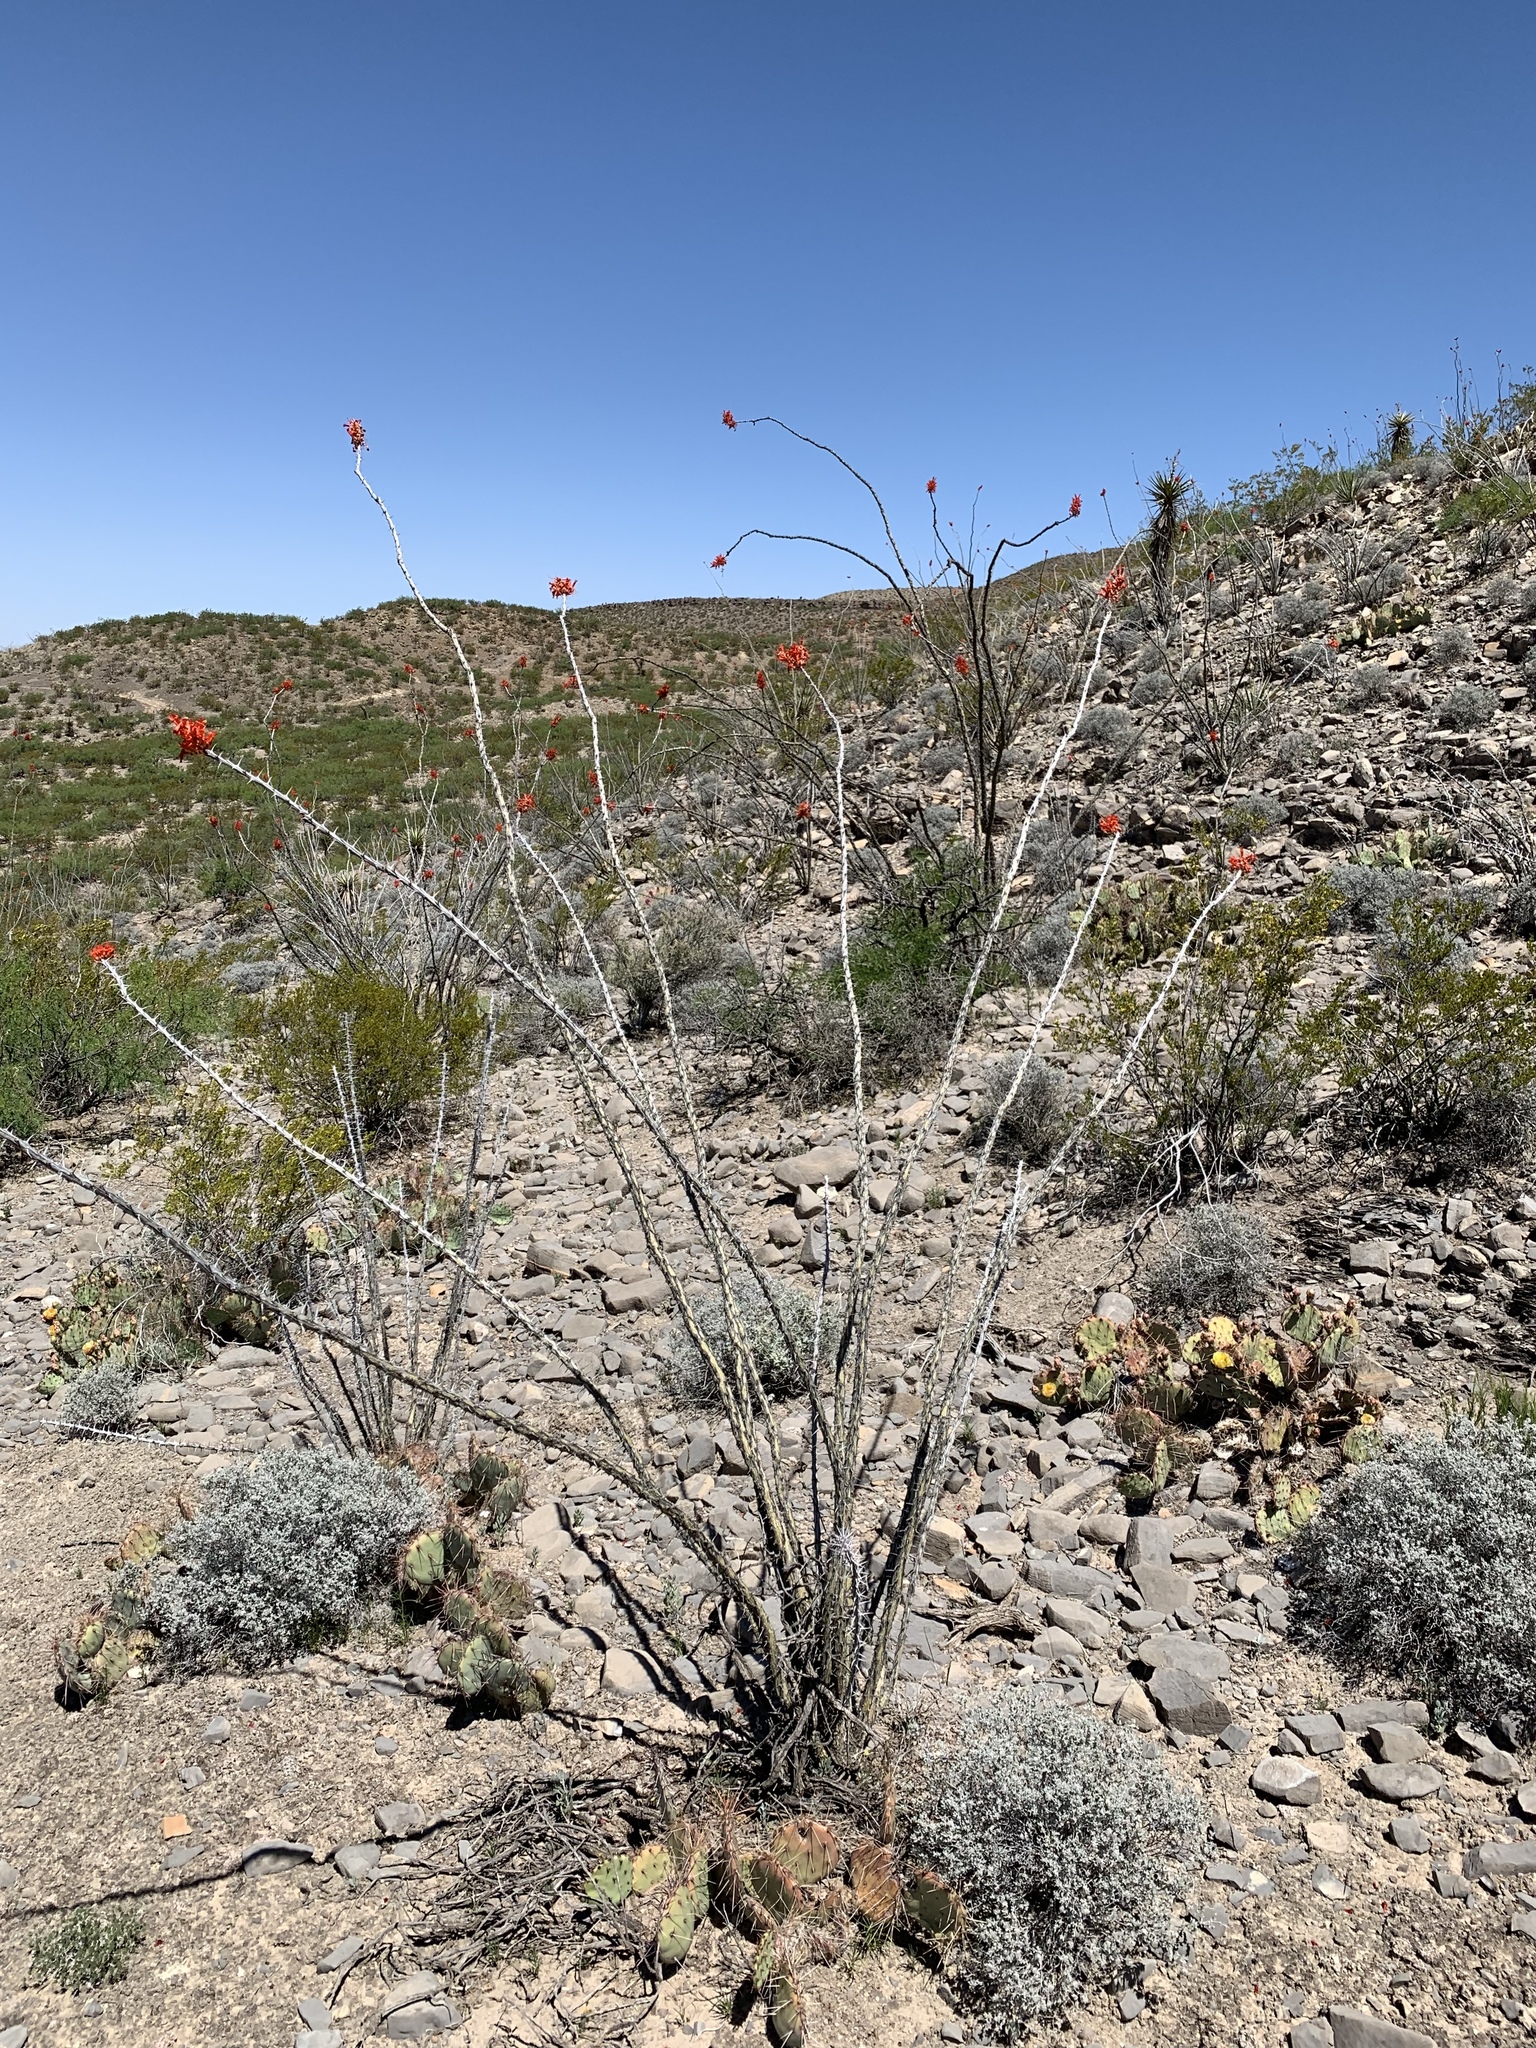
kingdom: Plantae
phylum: Tracheophyta
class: Magnoliopsida
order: Ericales
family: Fouquieriaceae
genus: Fouquieria
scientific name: Fouquieria splendens
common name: Vine-cactus
